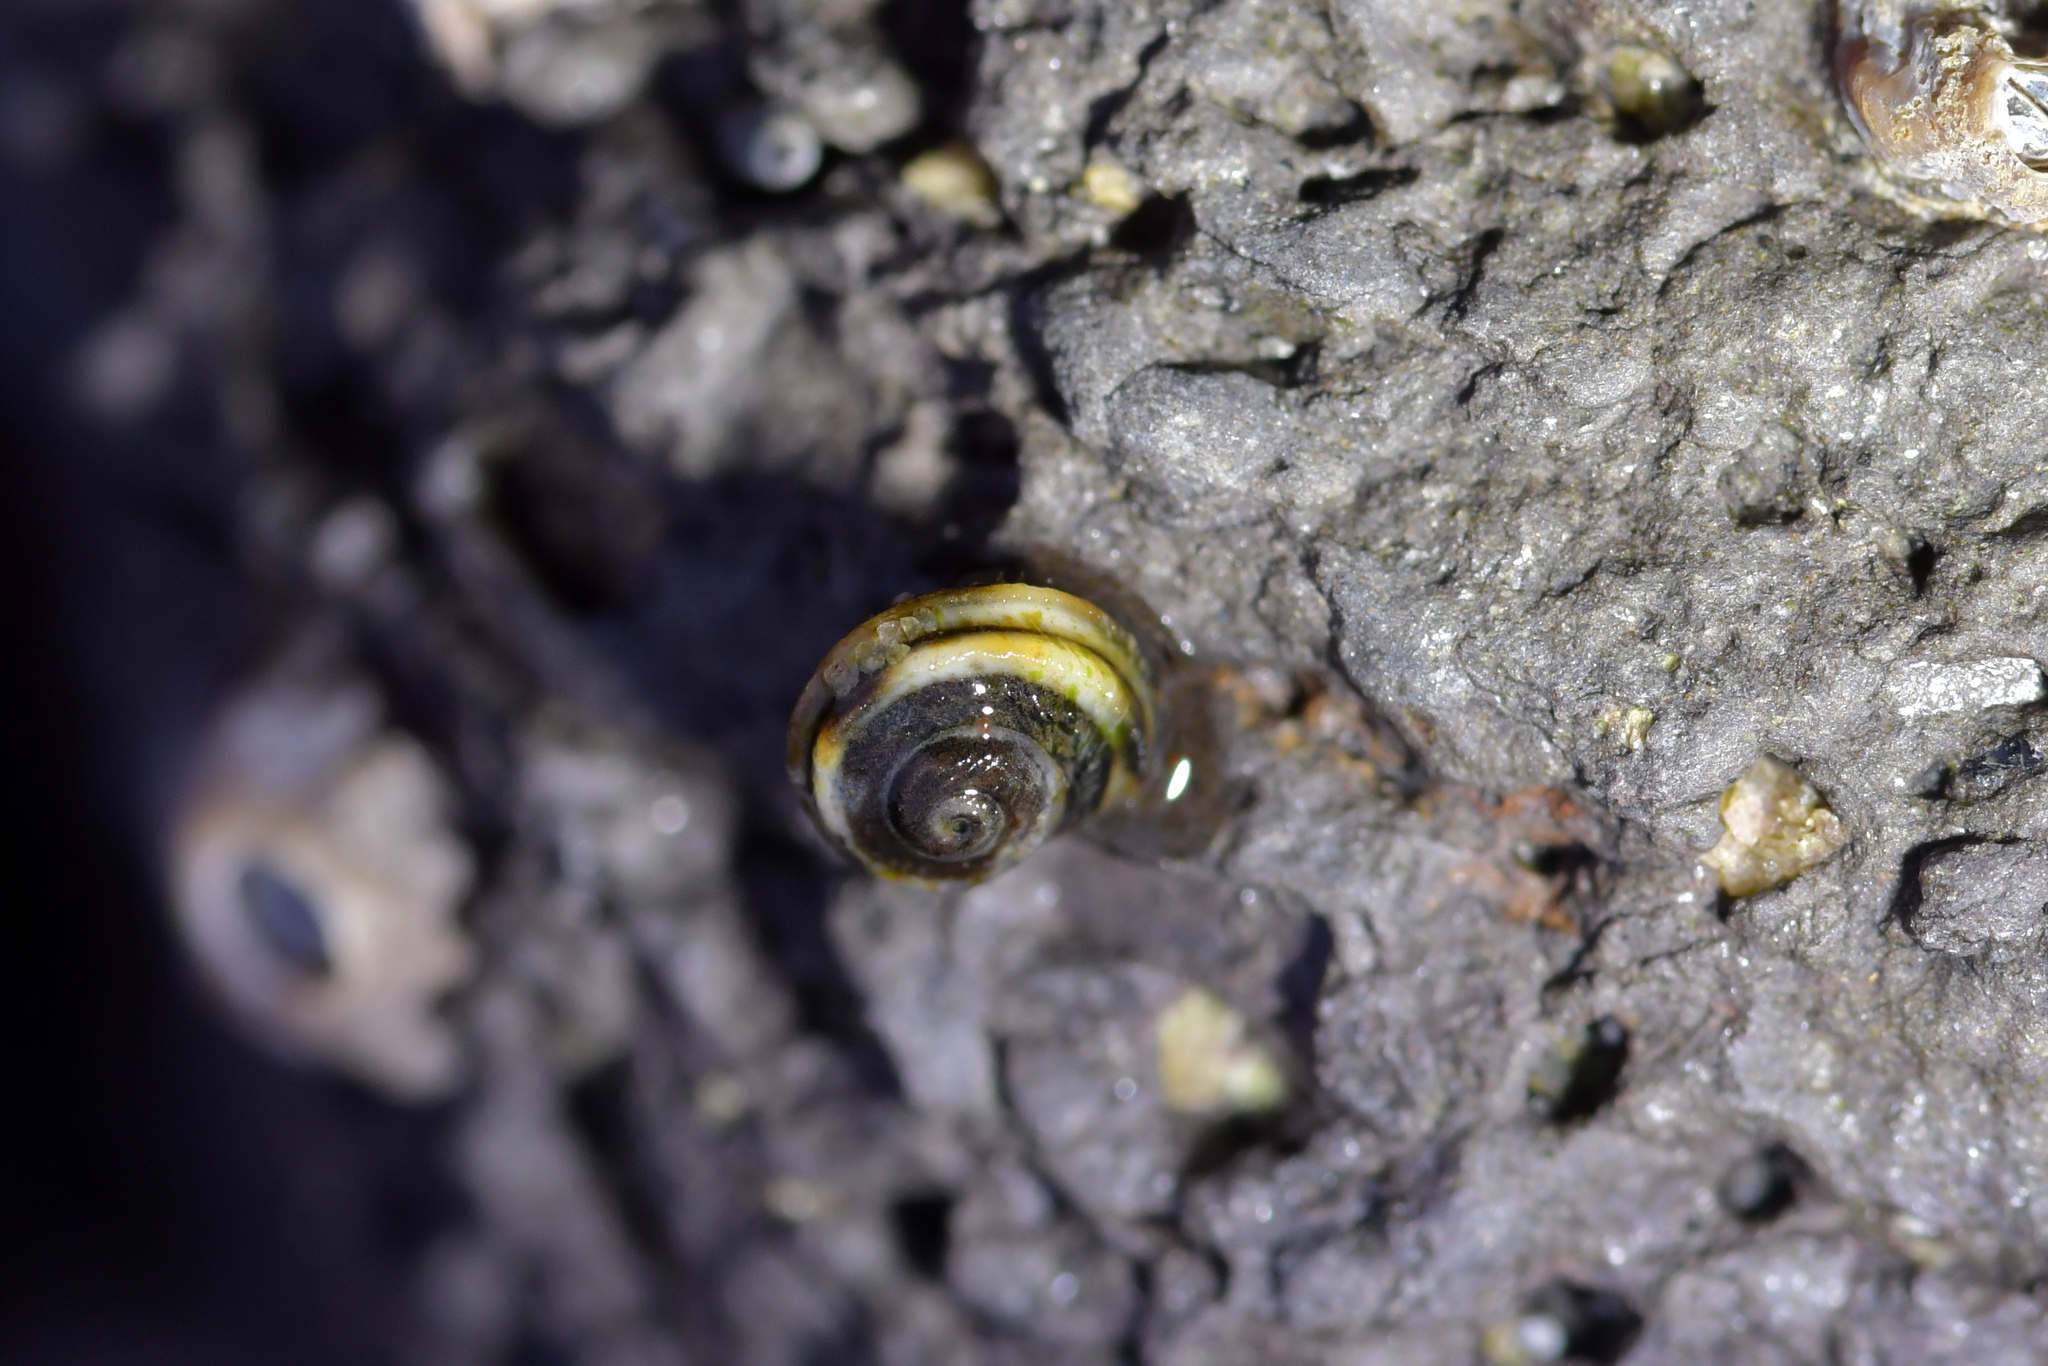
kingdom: Animalia
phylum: Mollusca
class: Gastropoda
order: Littorinimorpha
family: Littorinidae
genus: Risellopsis
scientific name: Risellopsis varia
